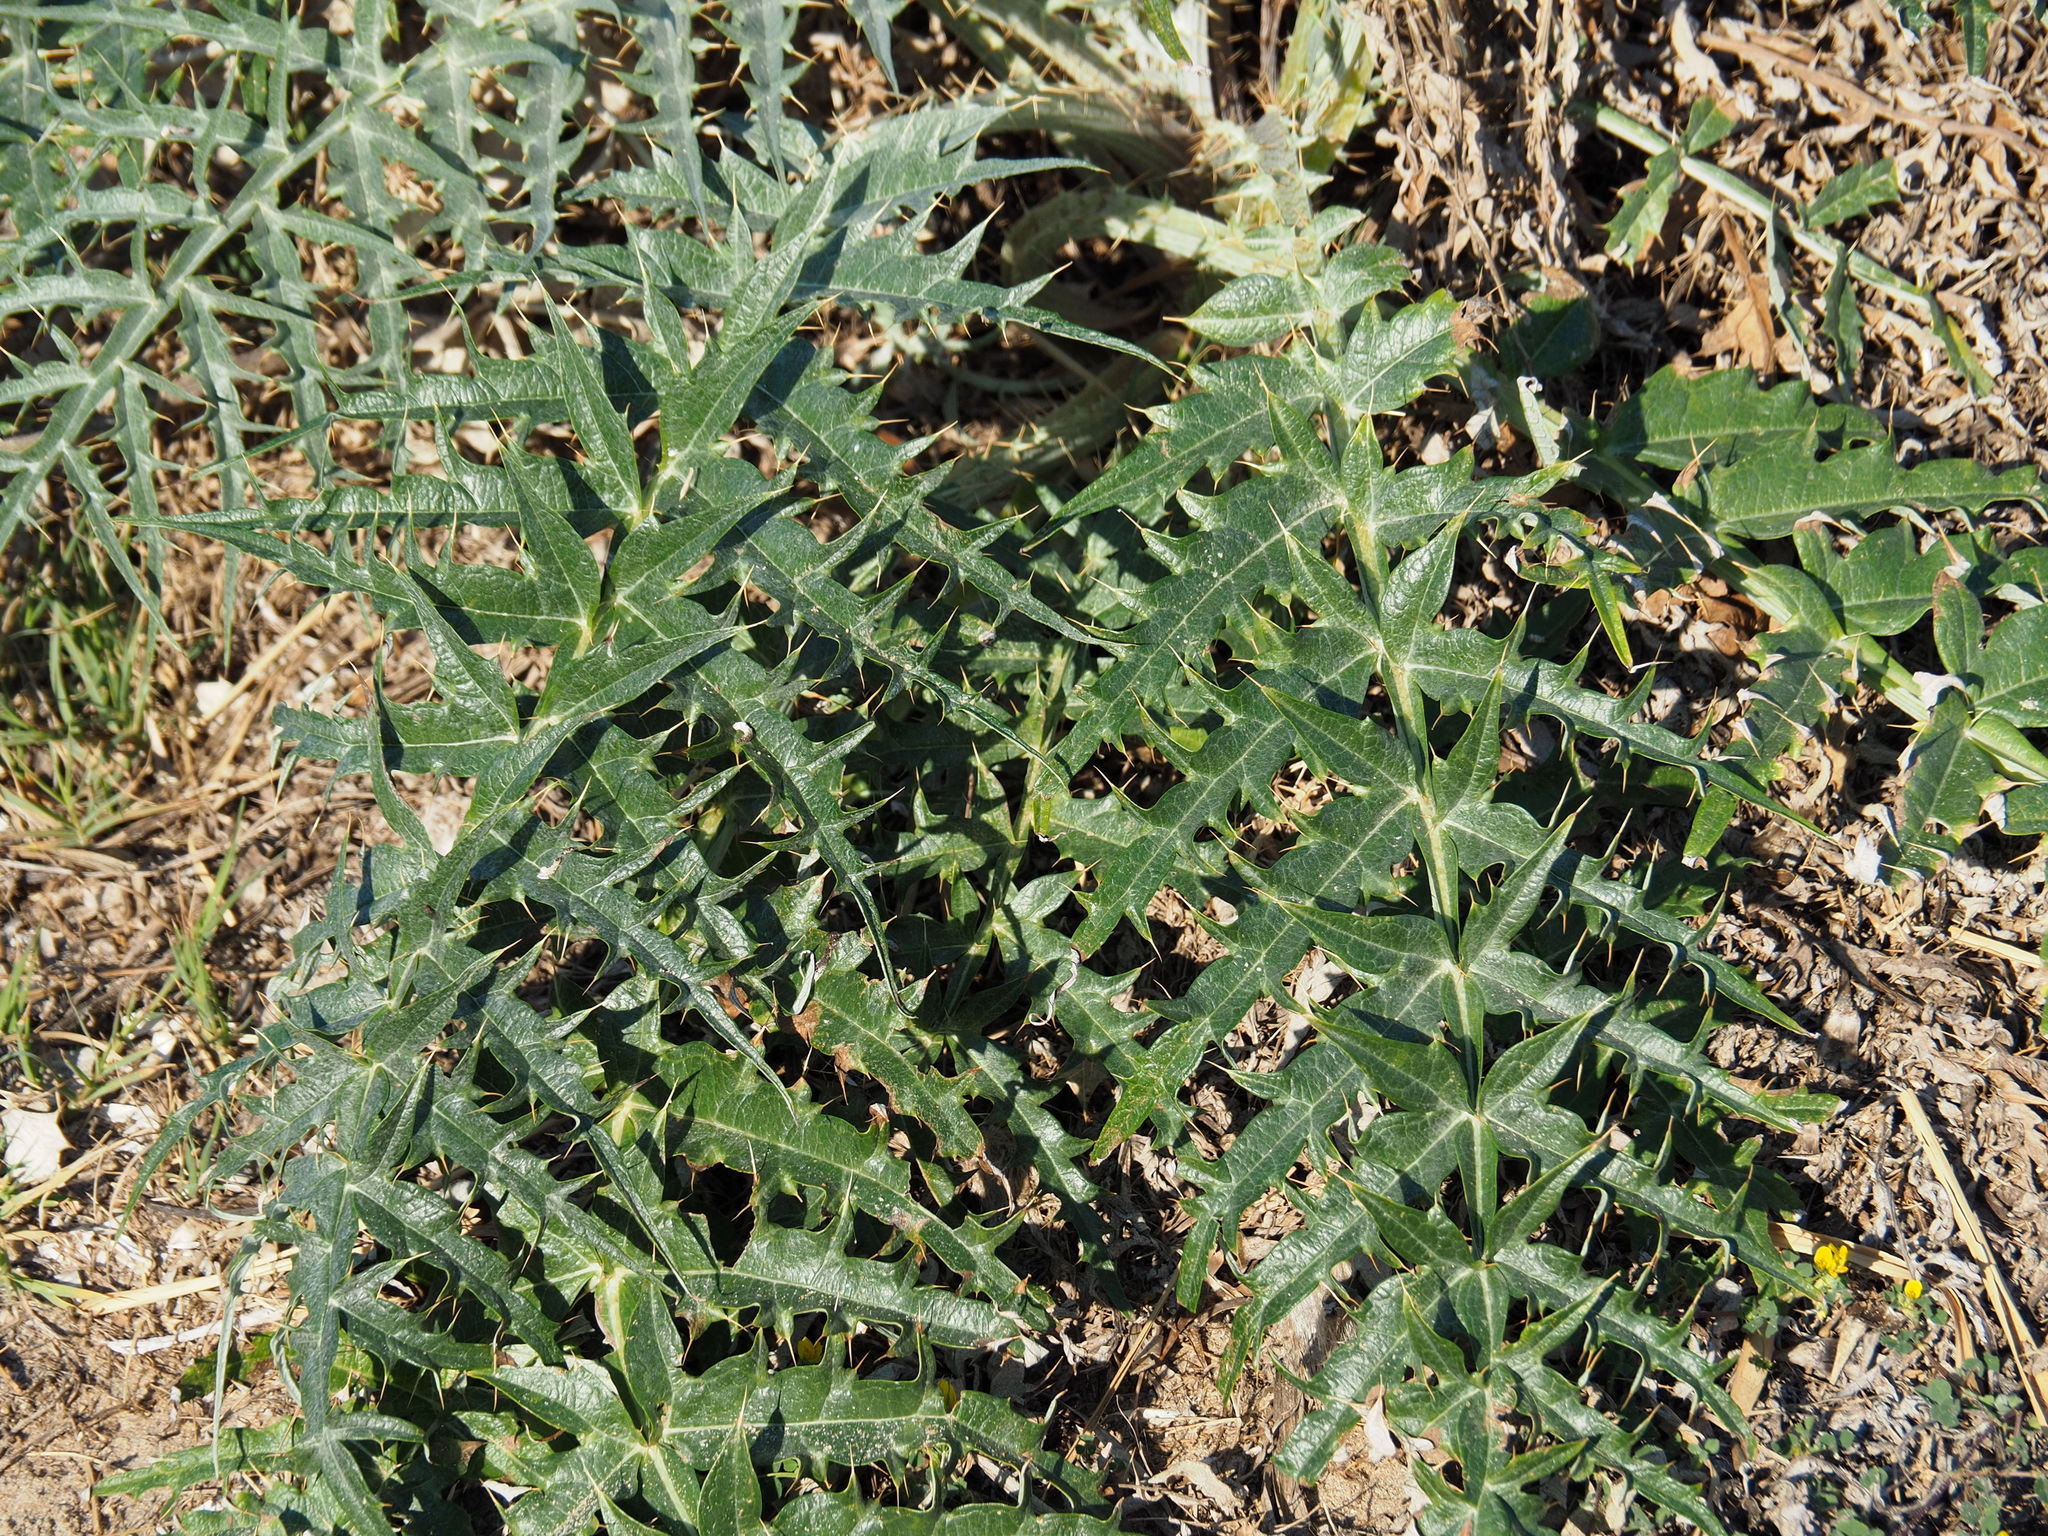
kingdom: Plantae
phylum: Tracheophyta
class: Magnoliopsida
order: Asterales
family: Asteraceae
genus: Cynara
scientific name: Cynara cardunculus
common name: Globe artichoke
